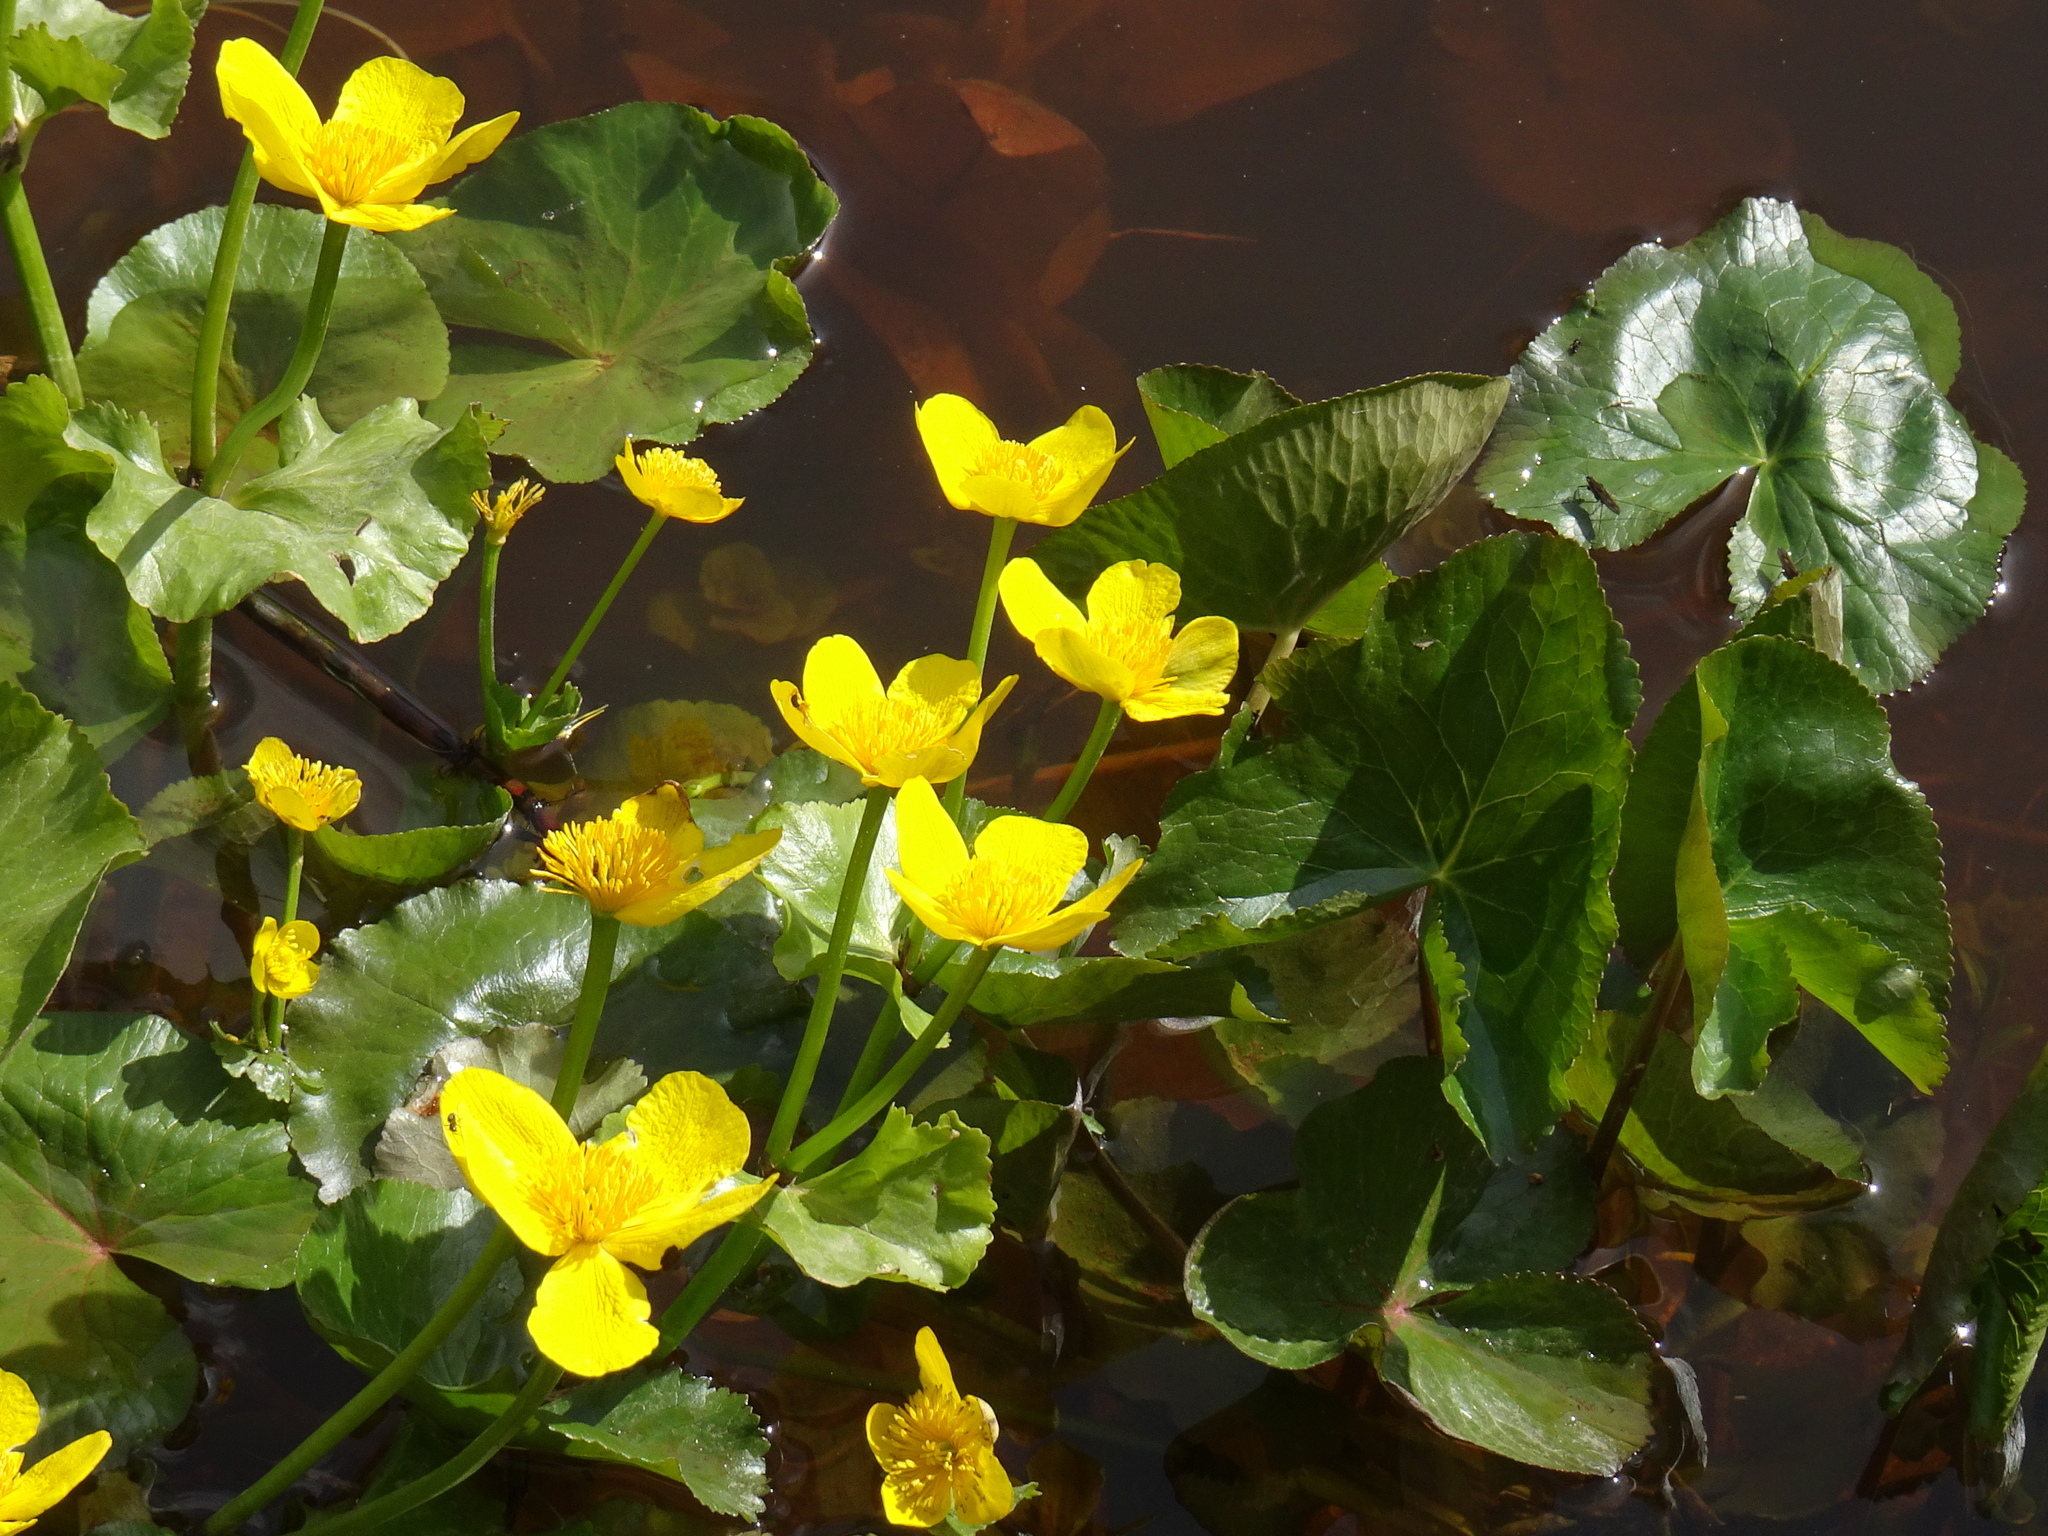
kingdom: Plantae
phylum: Tracheophyta
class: Magnoliopsida
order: Ranunculales
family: Ranunculaceae
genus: Caltha
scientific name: Caltha palustris
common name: Marsh marigold
